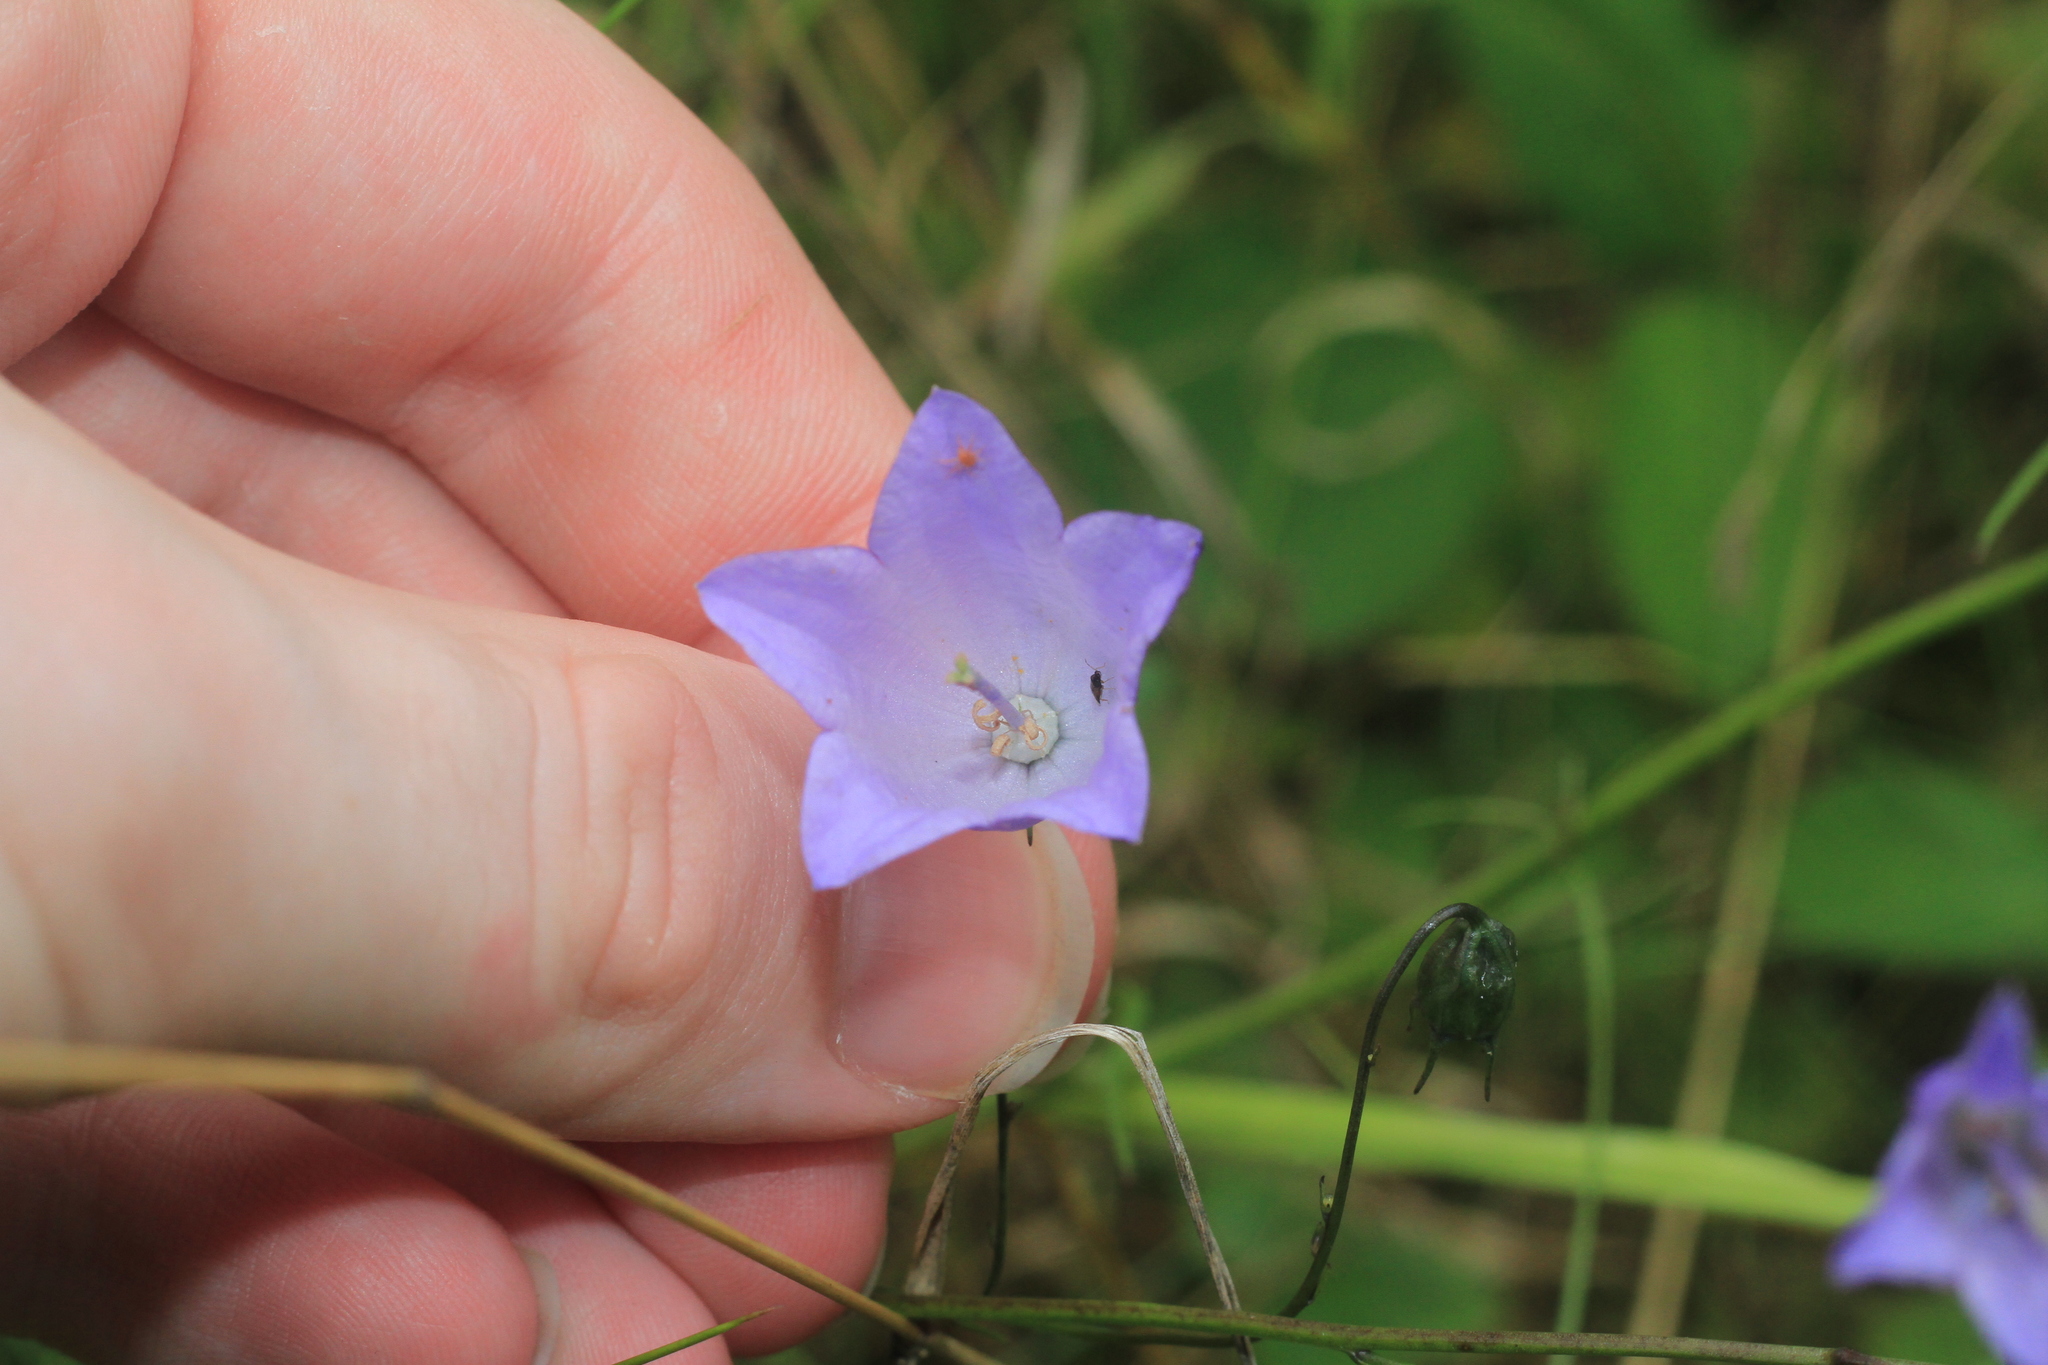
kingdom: Plantae
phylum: Tracheophyta
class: Magnoliopsida
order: Asterales
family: Campanulaceae
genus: Campanula
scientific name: Campanula rotundifolia
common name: Harebell
